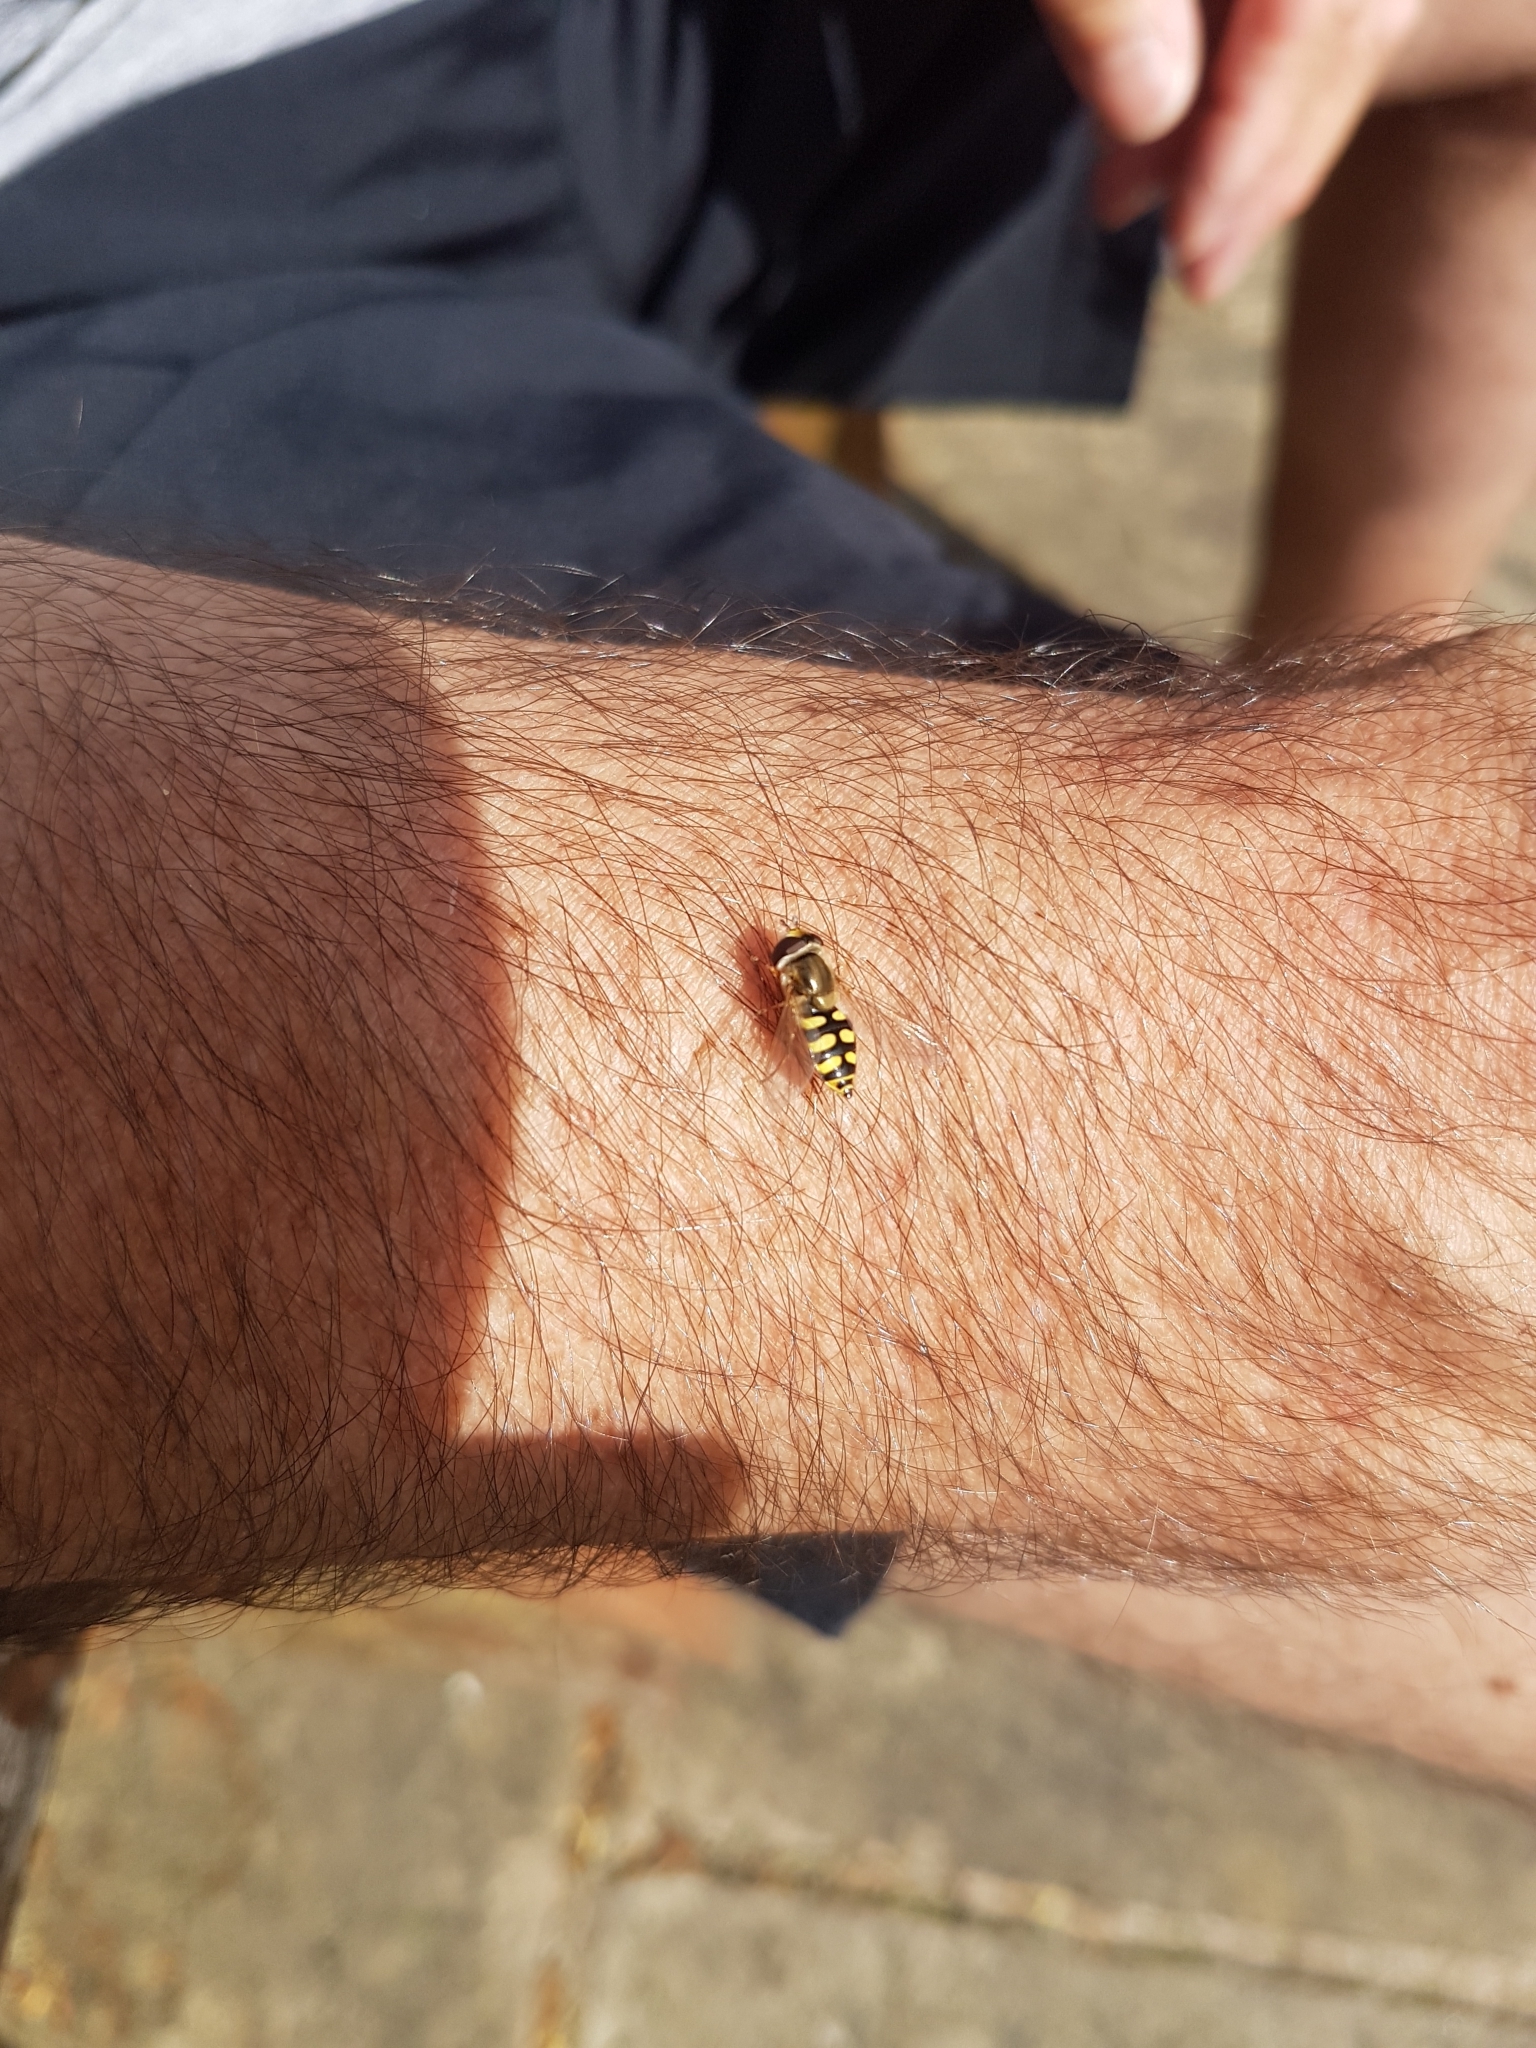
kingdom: Animalia
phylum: Arthropoda
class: Insecta
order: Diptera
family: Syrphidae
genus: Eupeodes
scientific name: Eupeodes corollae
